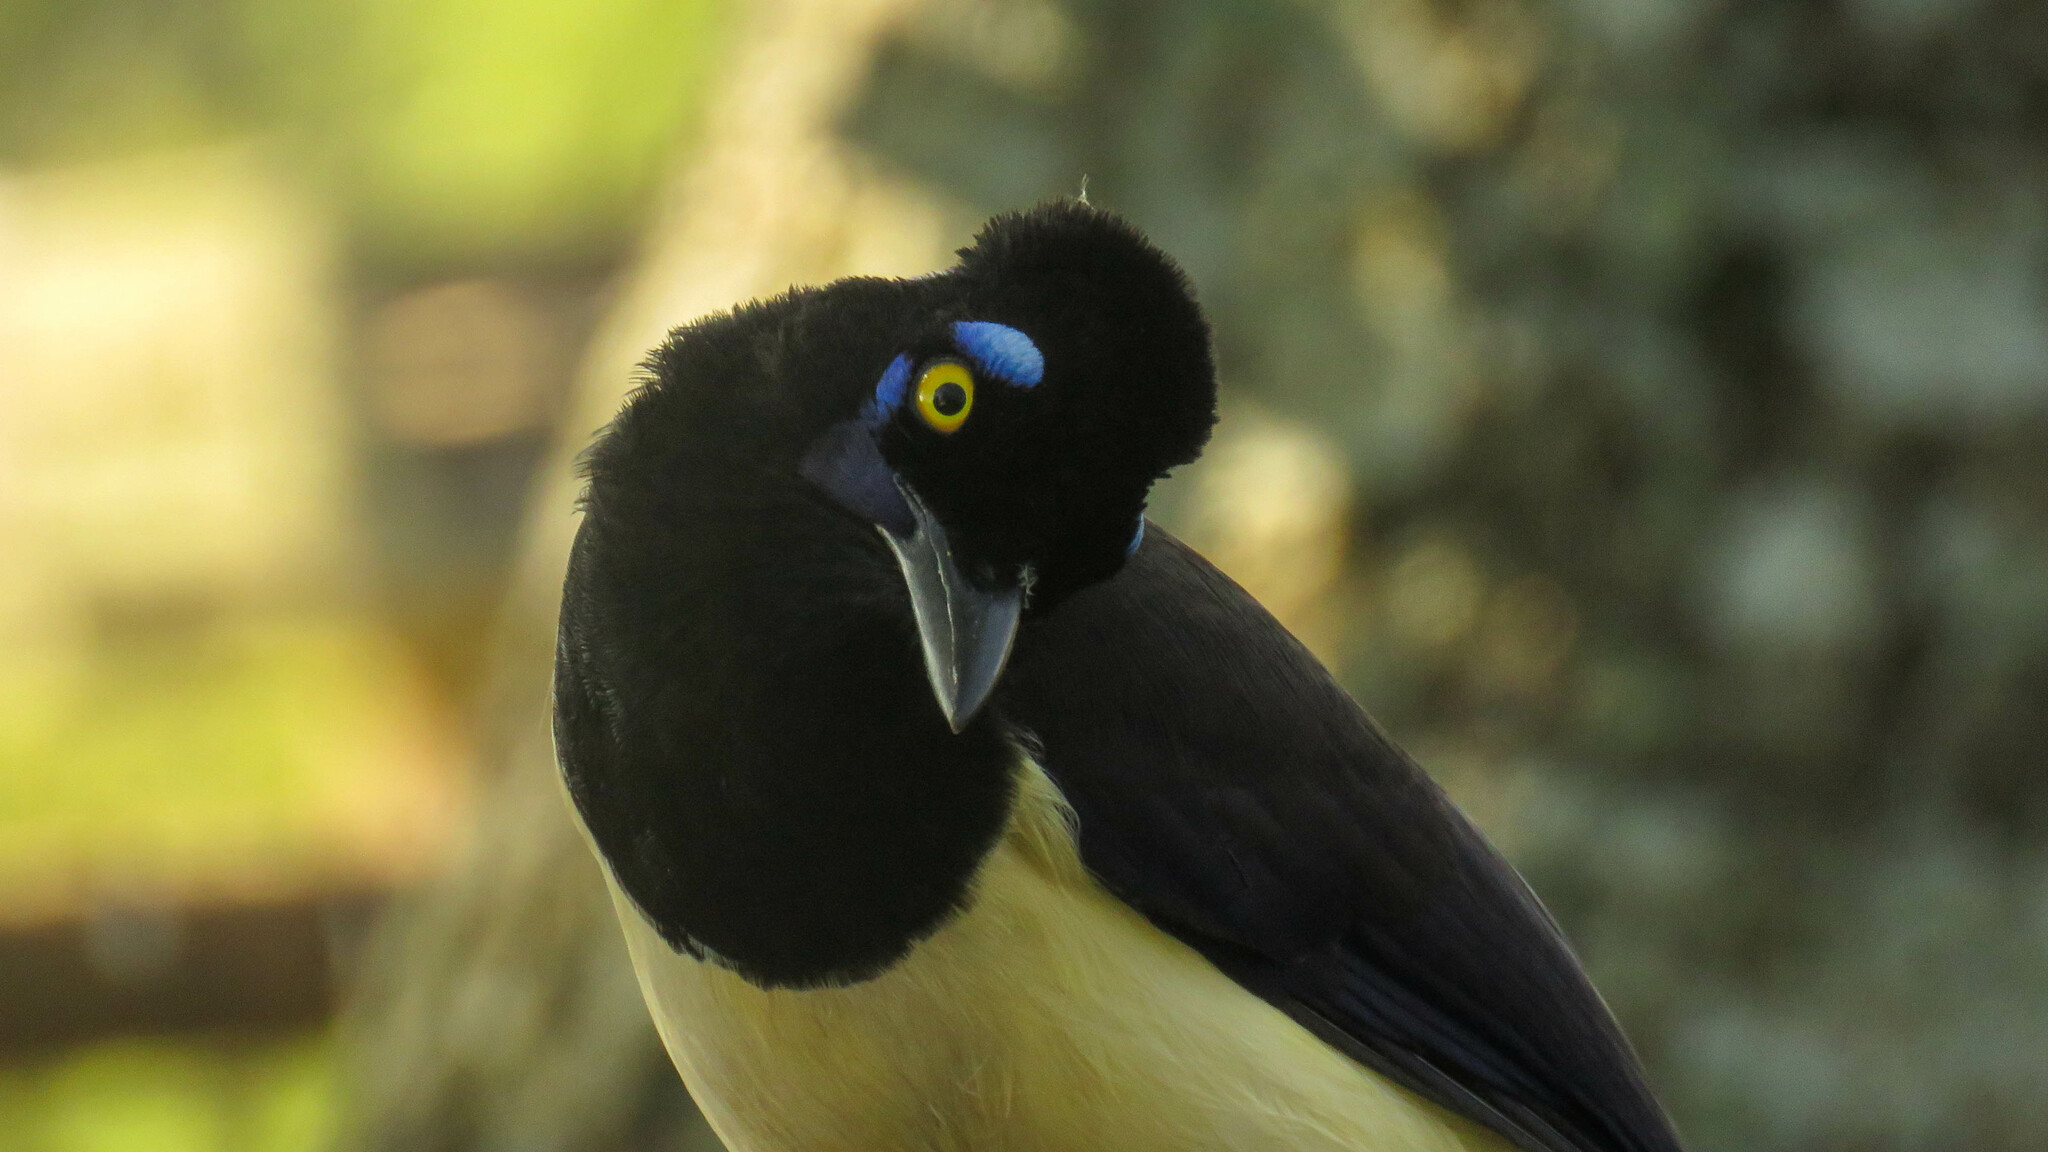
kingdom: Animalia
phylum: Chordata
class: Aves
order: Passeriformes
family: Corvidae
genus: Cyanocorax
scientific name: Cyanocorax chrysops
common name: Plush-crested jay
